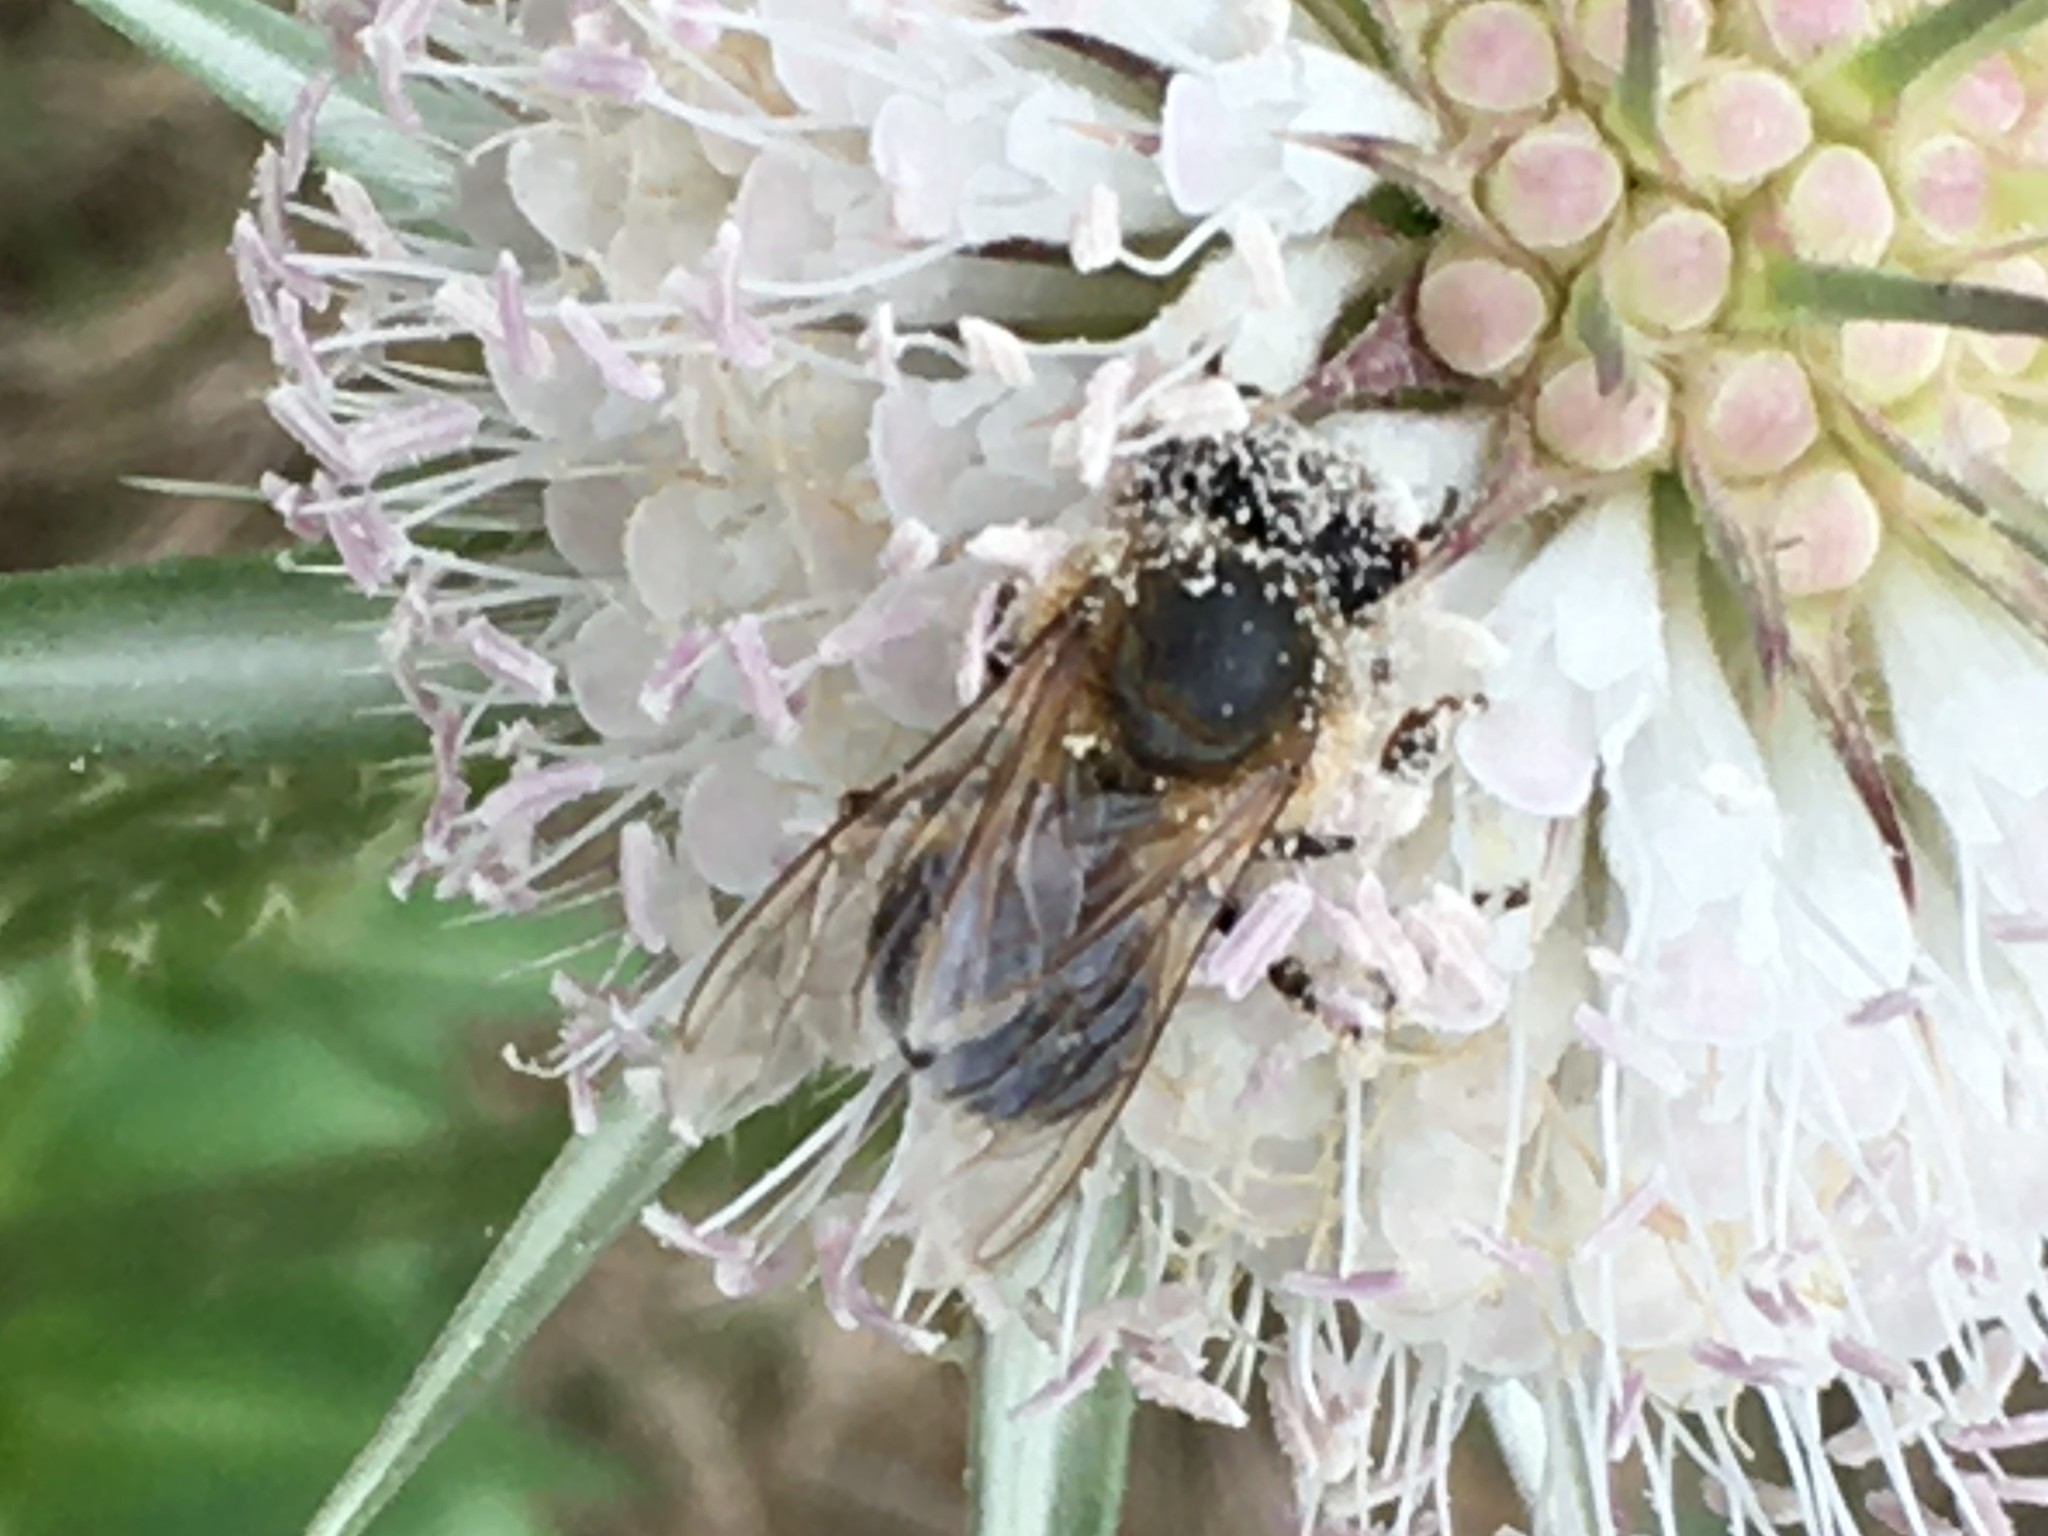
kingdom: Animalia
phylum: Arthropoda
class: Insecta
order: Hymenoptera
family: Apidae
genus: Apis
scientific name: Apis mellifera
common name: Honey bee
